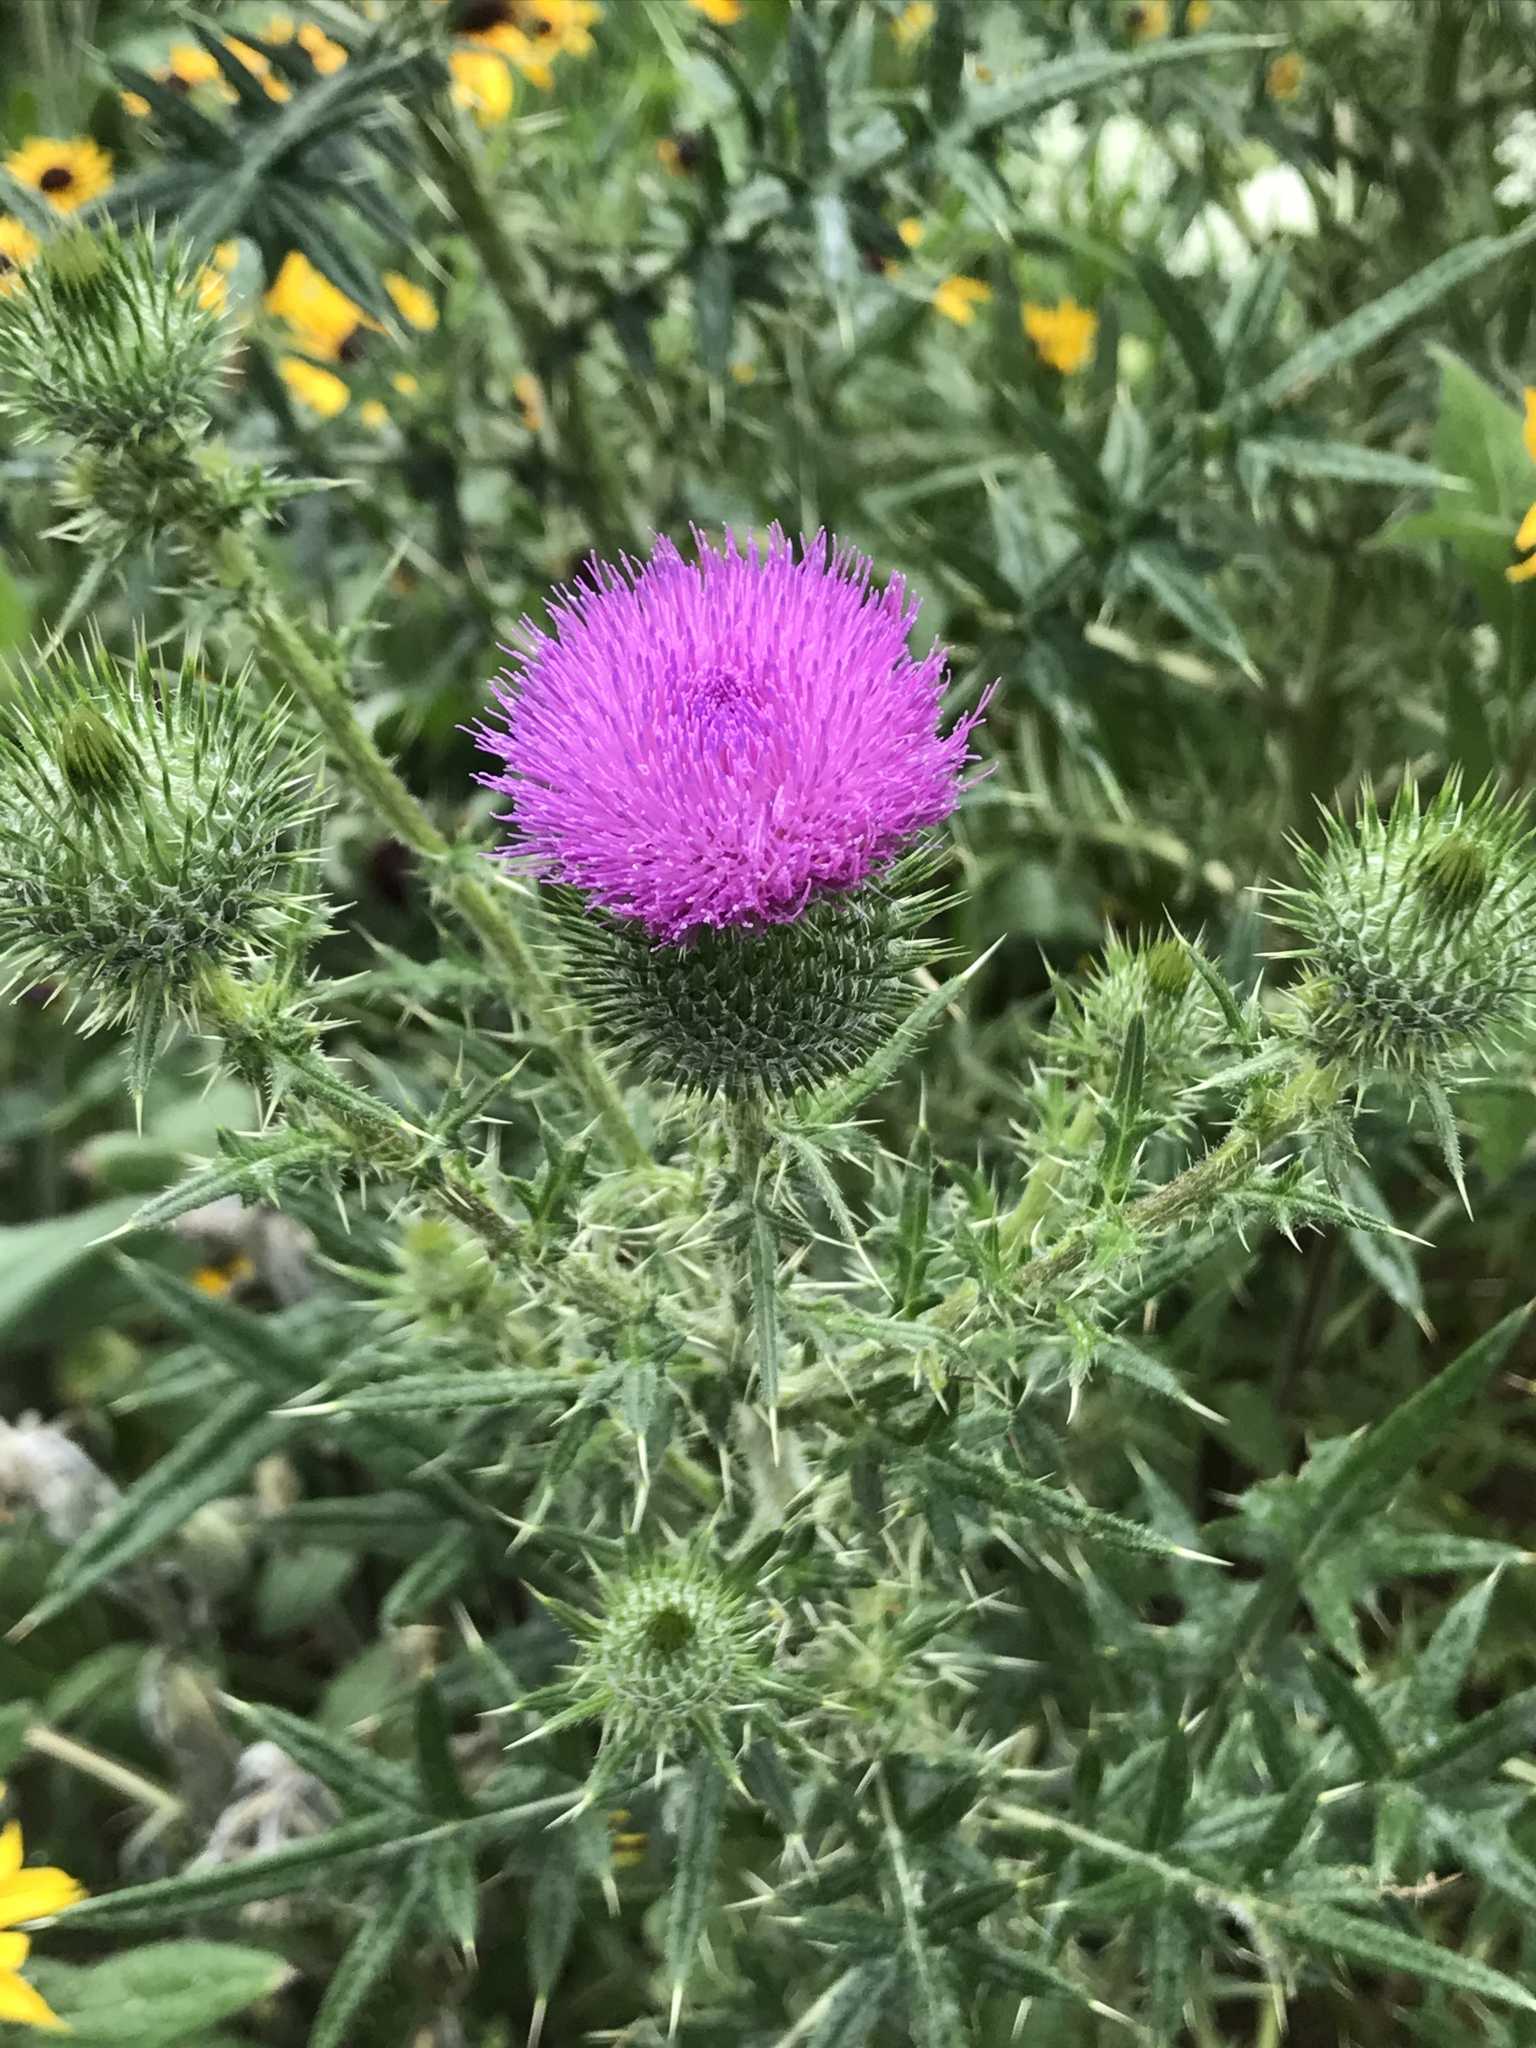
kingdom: Plantae
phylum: Tracheophyta
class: Magnoliopsida
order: Asterales
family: Asteraceae
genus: Cirsium
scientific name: Cirsium vulgare
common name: Bull thistle
